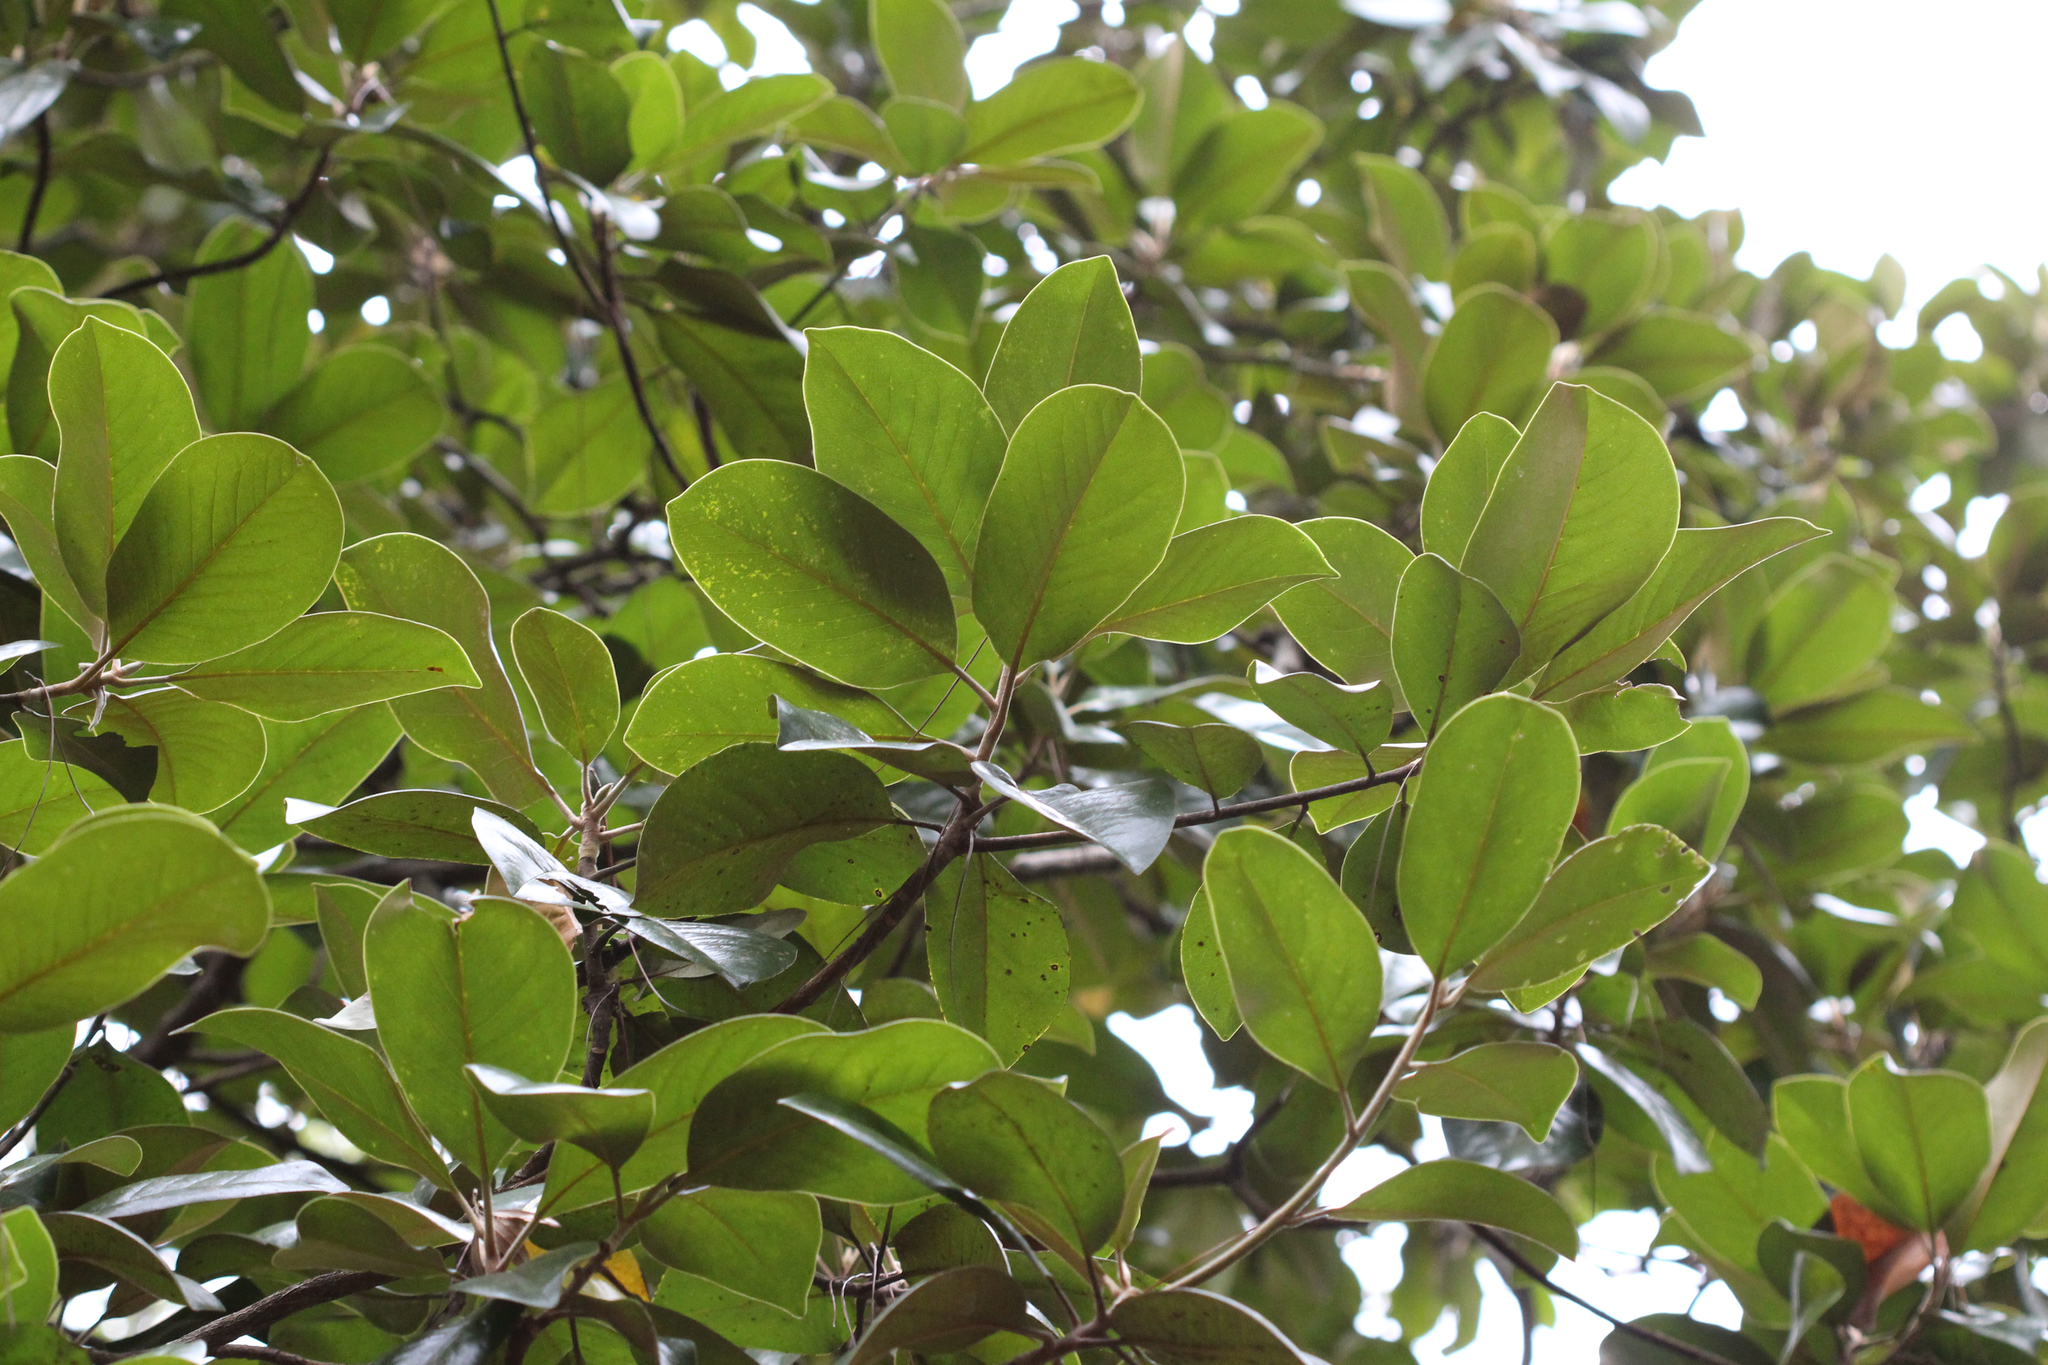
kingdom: Plantae
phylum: Tracheophyta
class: Magnoliopsida
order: Magnoliales
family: Magnoliaceae
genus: Magnolia
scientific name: Magnolia grandiflora
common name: Southern magnolia
